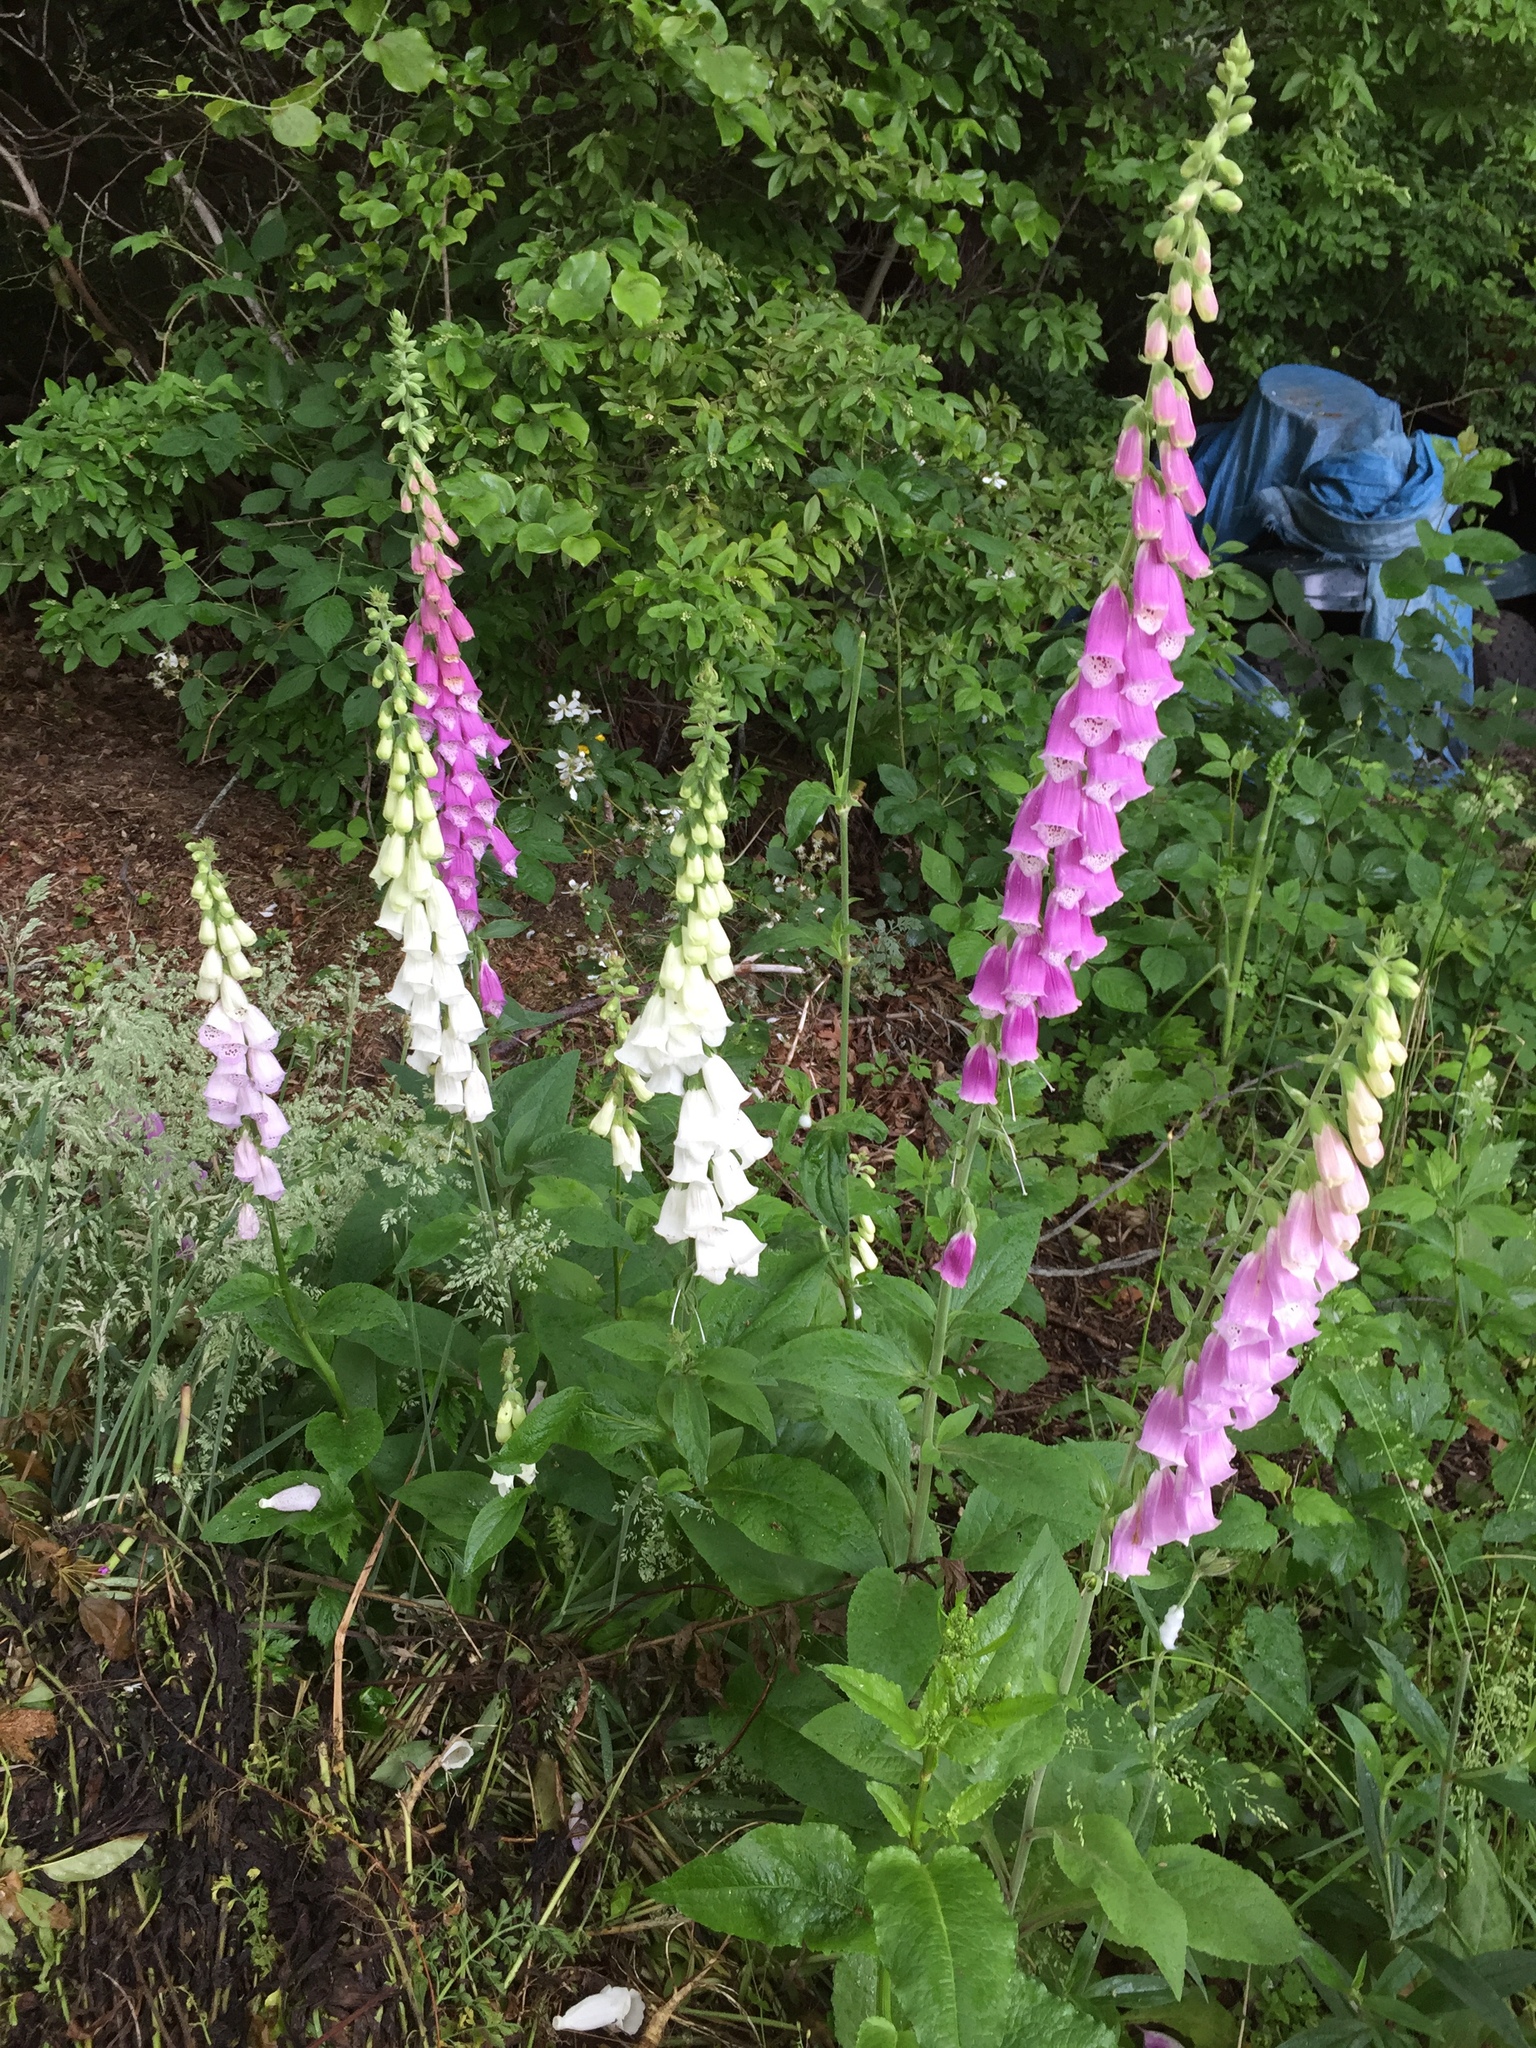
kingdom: Plantae
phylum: Tracheophyta
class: Magnoliopsida
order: Lamiales
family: Plantaginaceae
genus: Digitalis
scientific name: Digitalis purpurea
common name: Foxglove
